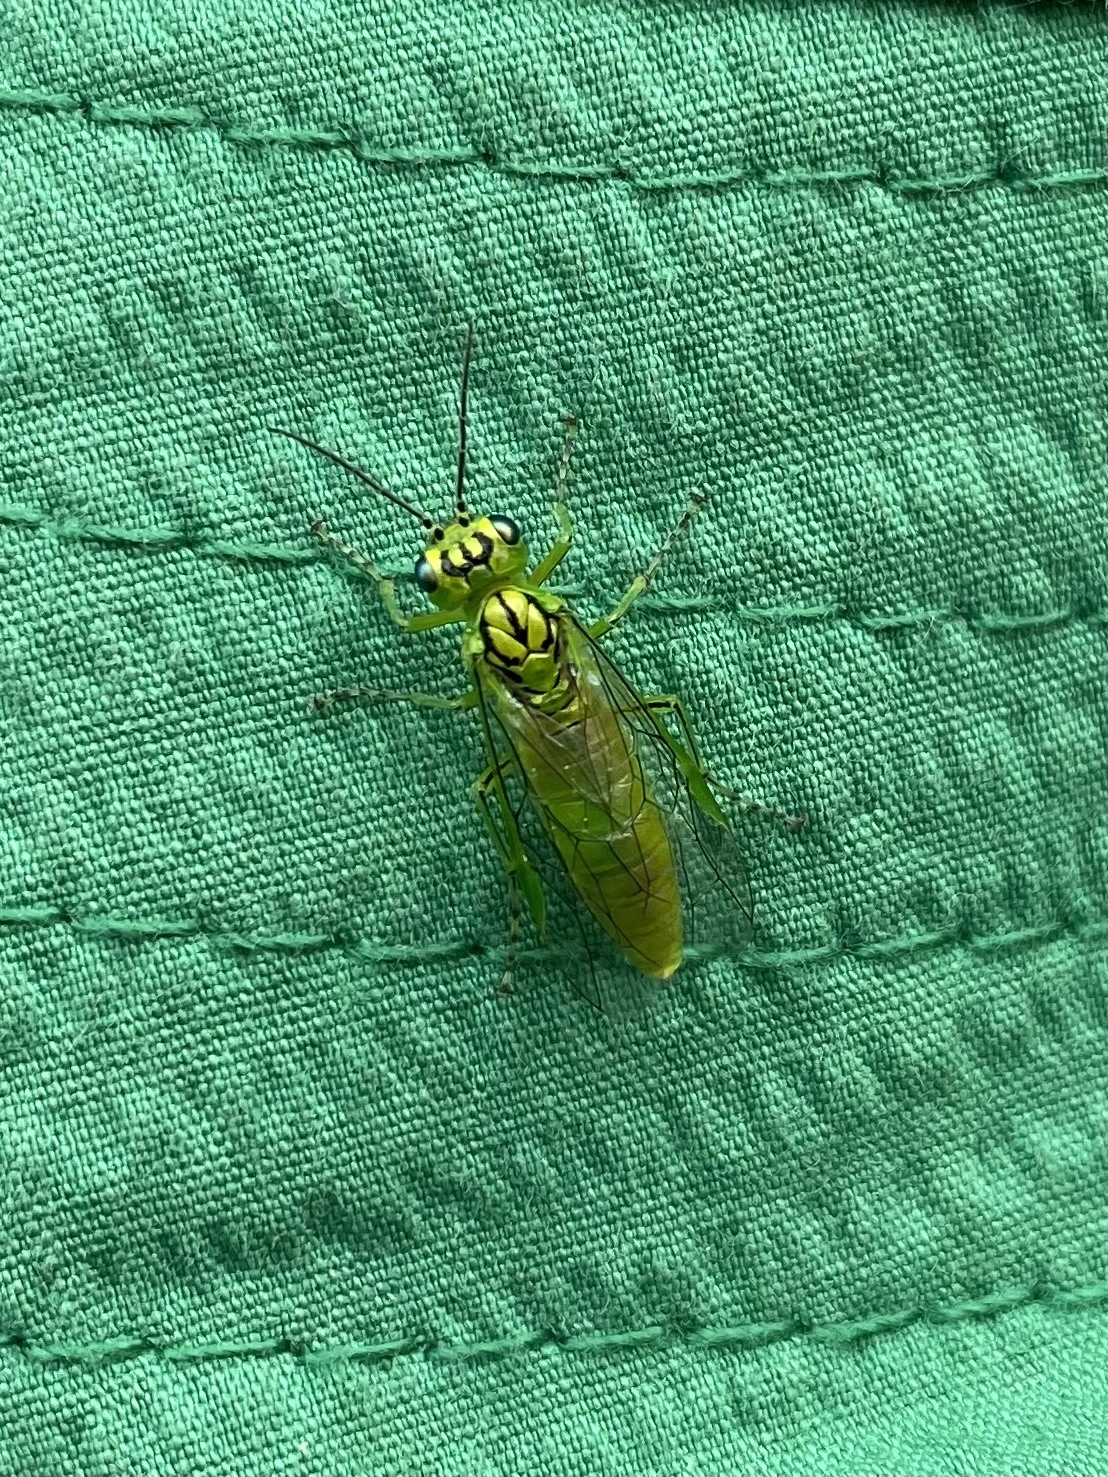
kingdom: Animalia
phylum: Arthropoda
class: Insecta
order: Hymenoptera
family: Tenthredinidae
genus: Rhogogaster
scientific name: Rhogogaster punctulata
